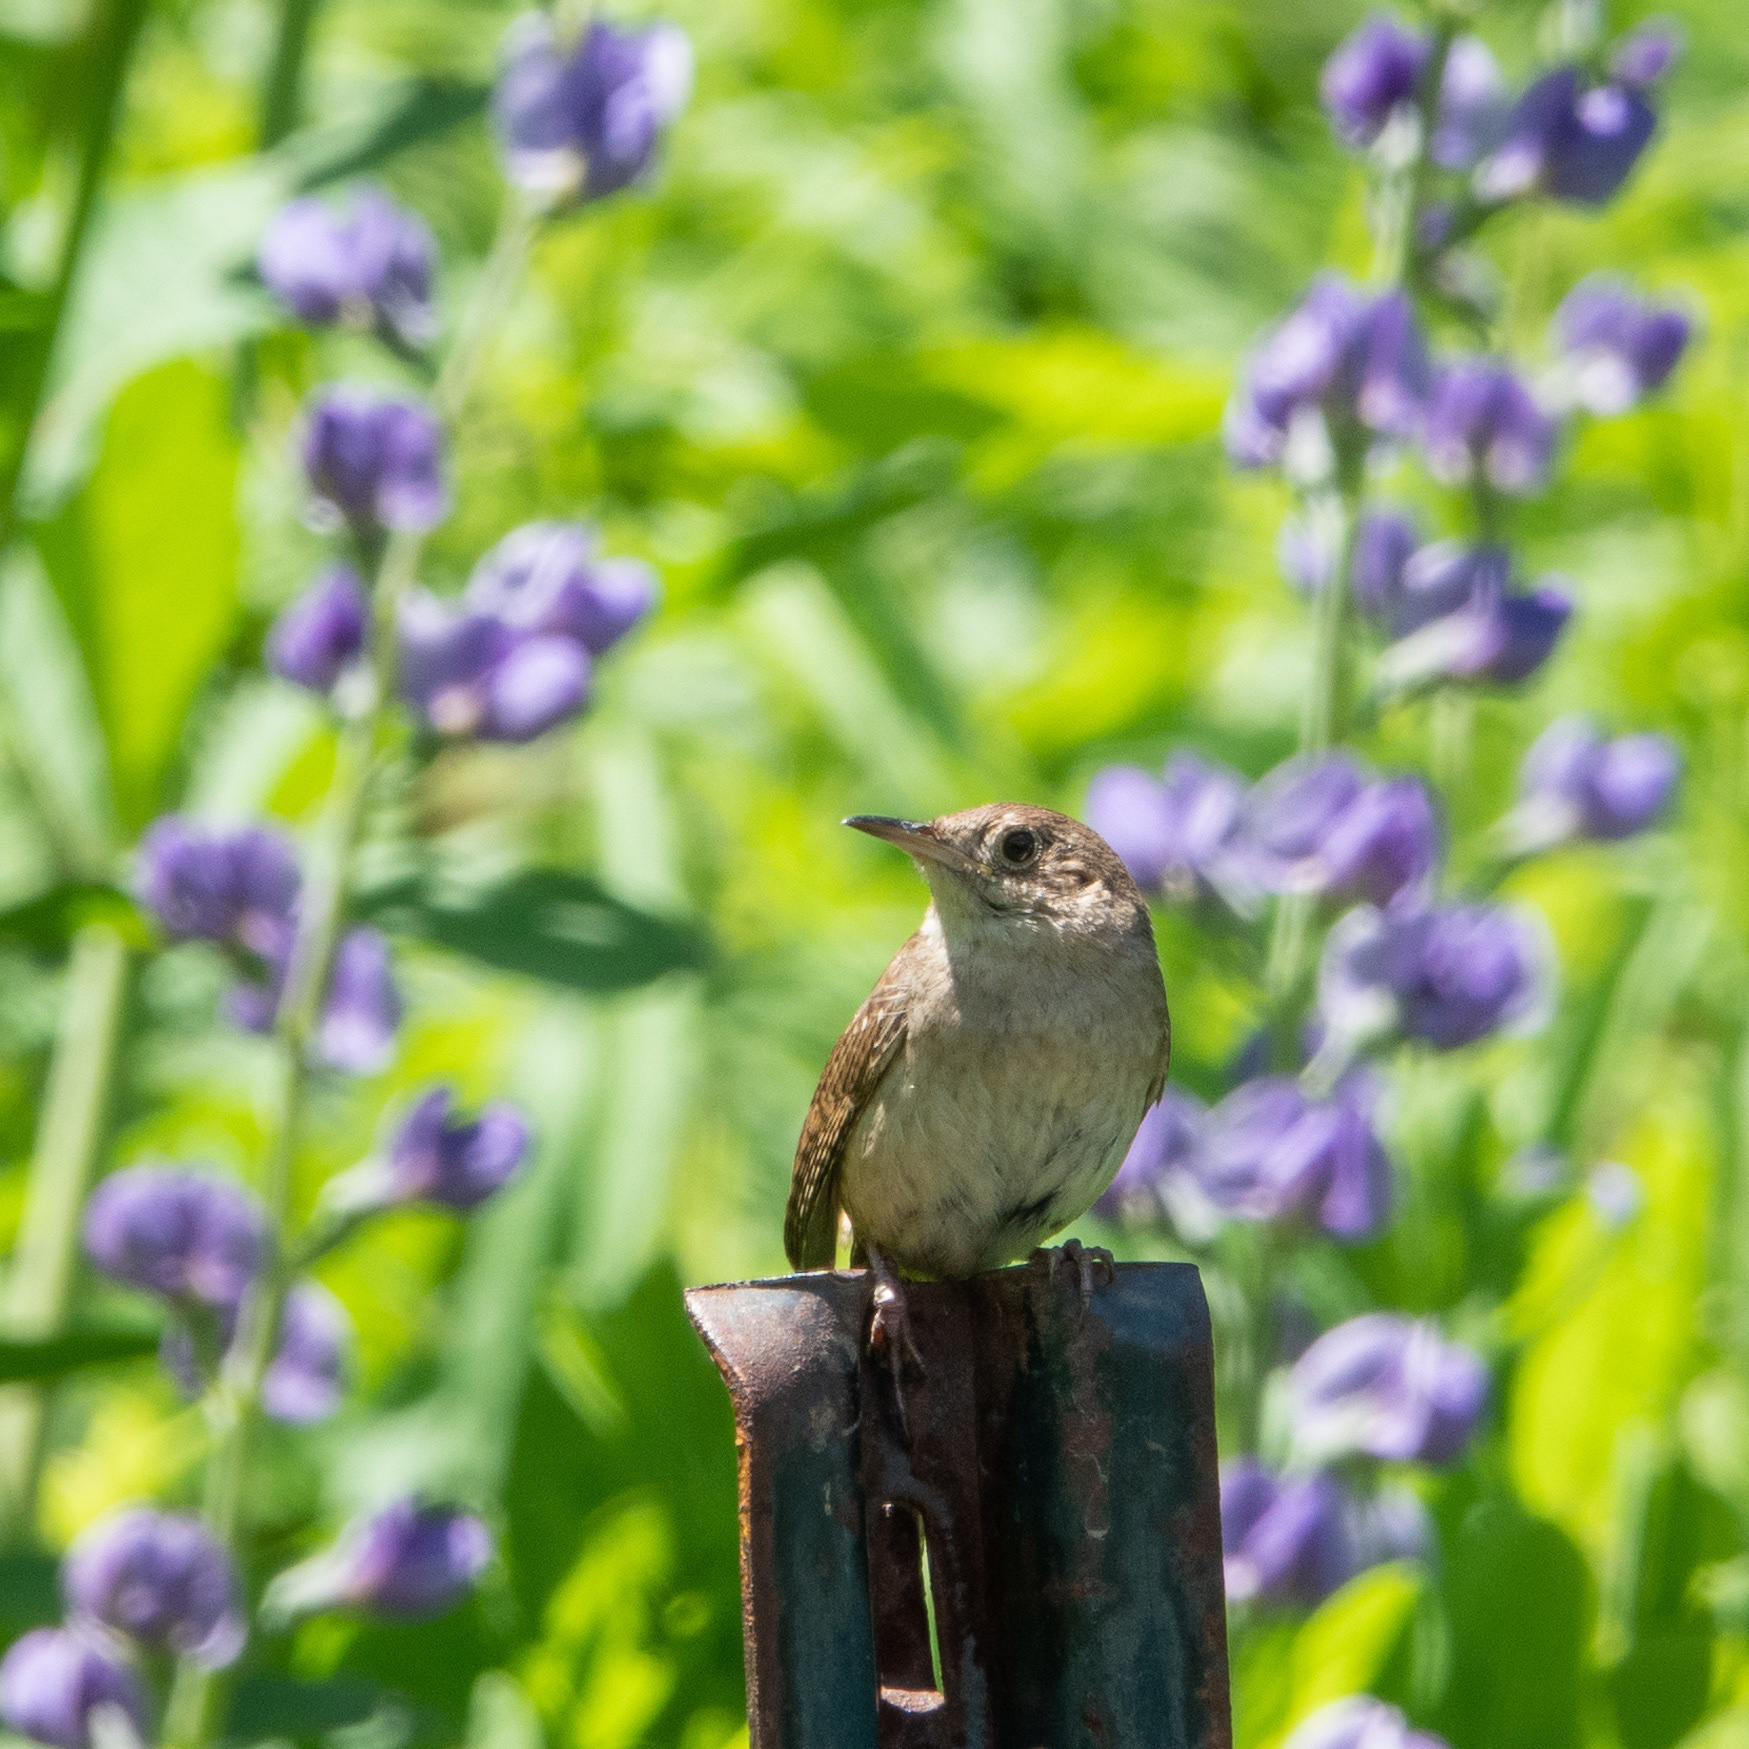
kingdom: Animalia
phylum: Chordata
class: Aves
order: Passeriformes
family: Troglodytidae
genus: Troglodytes
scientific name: Troglodytes aedon
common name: House wren
